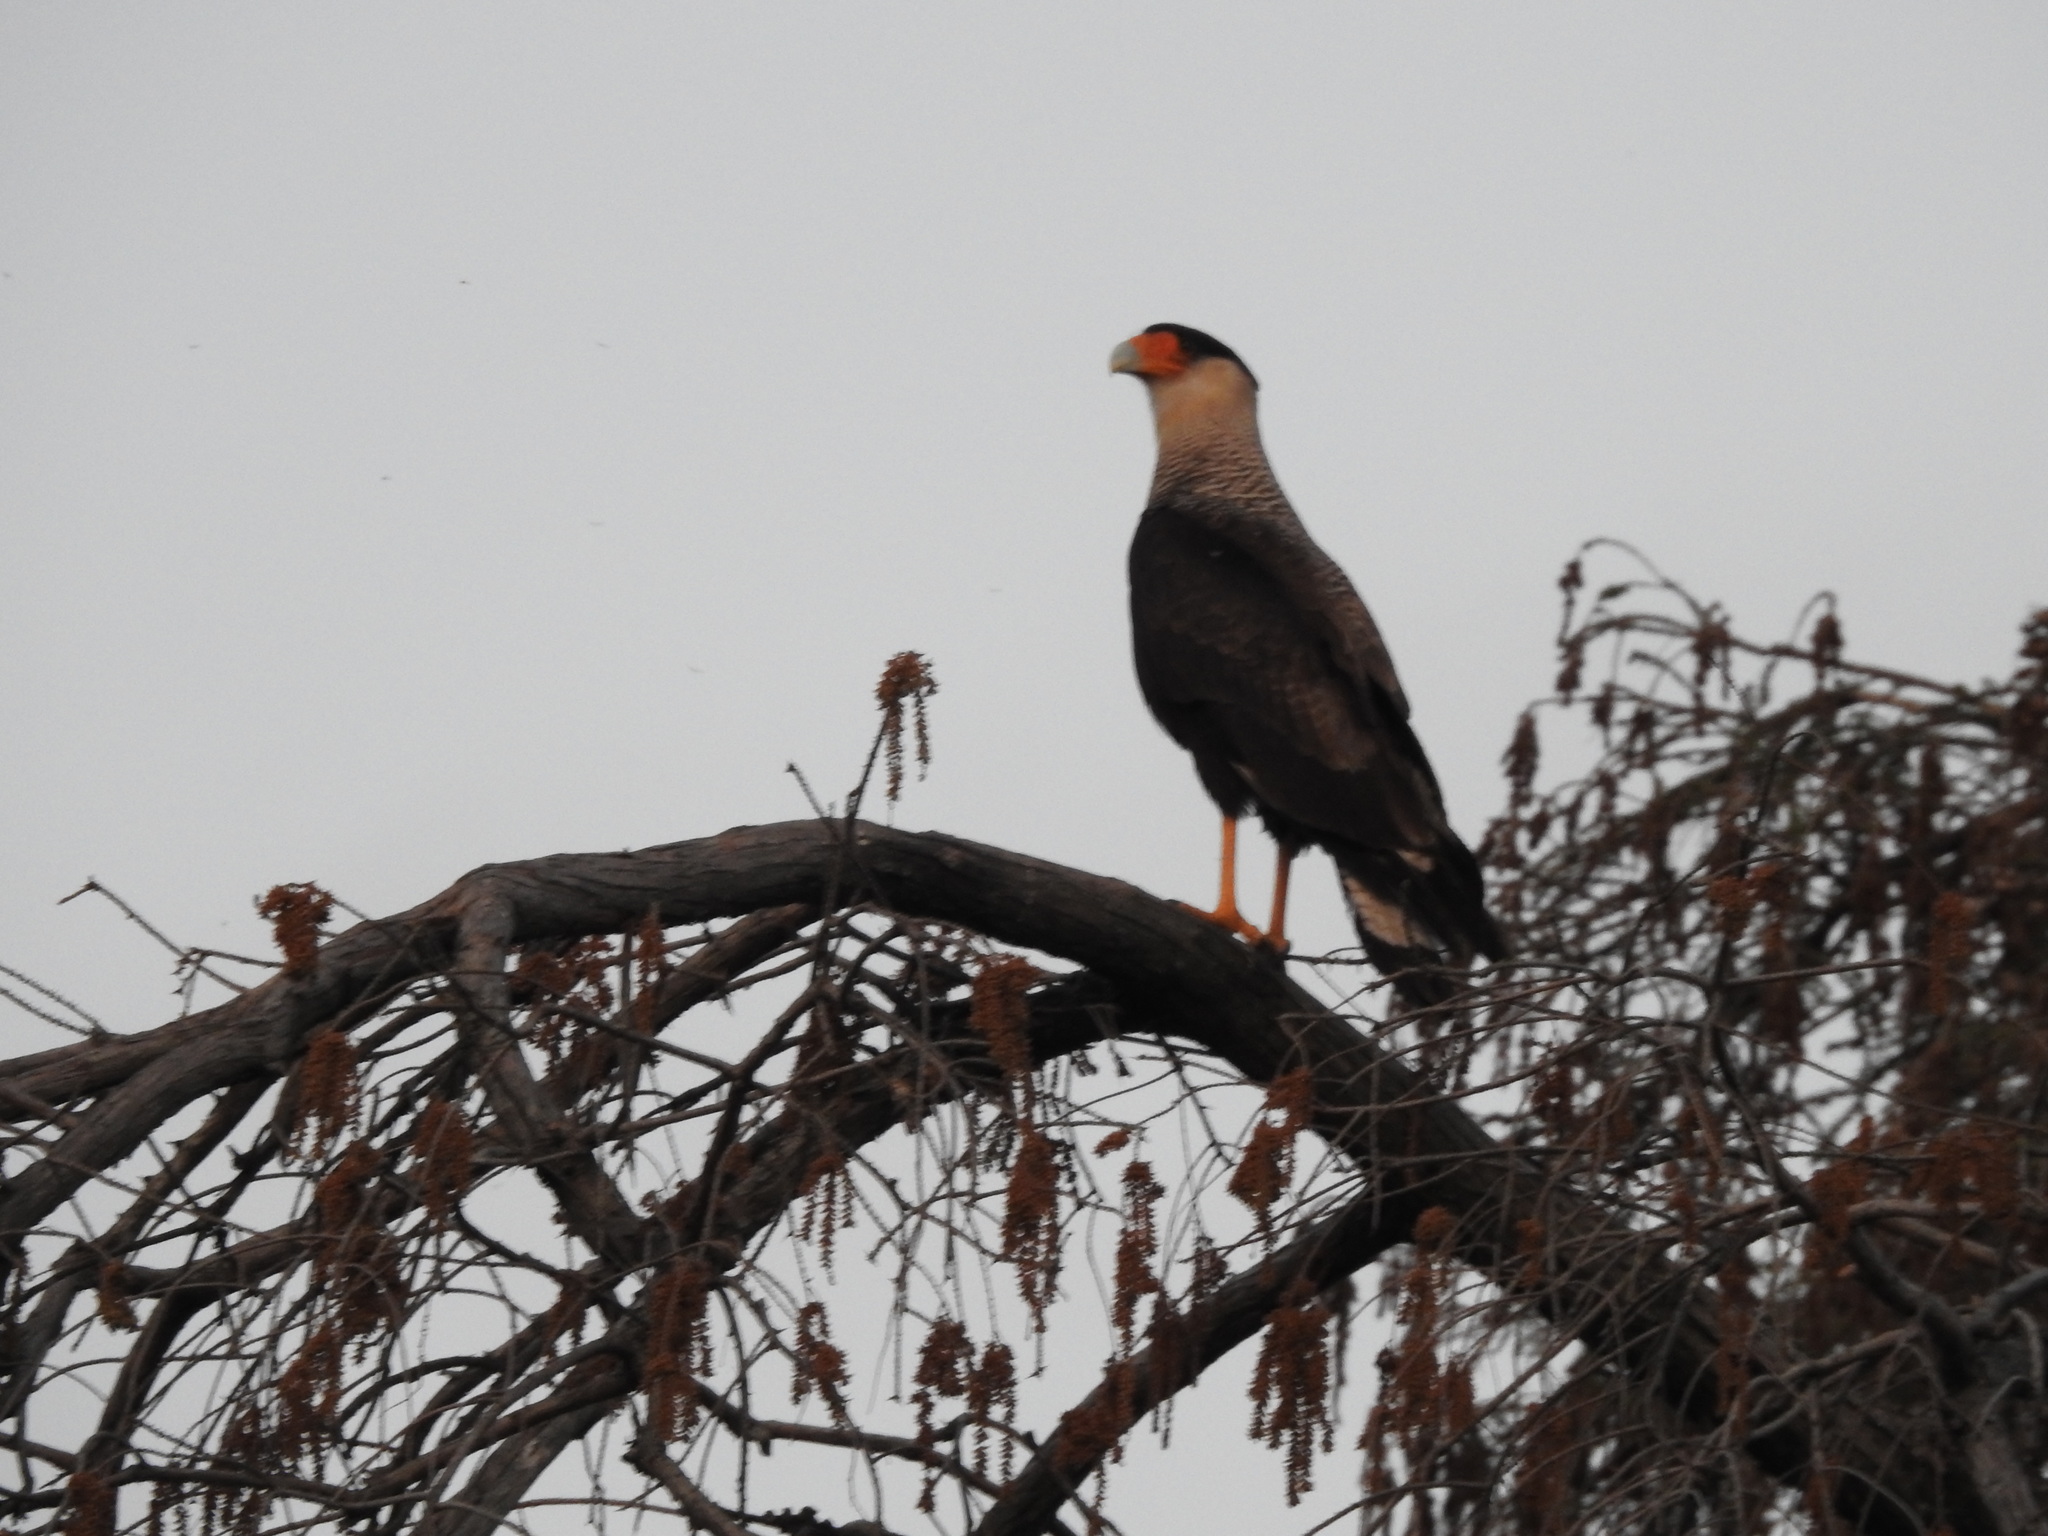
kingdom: Animalia
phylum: Chordata
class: Aves
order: Falconiformes
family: Falconidae
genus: Caracara
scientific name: Caracara plancus
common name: Southern caracara
